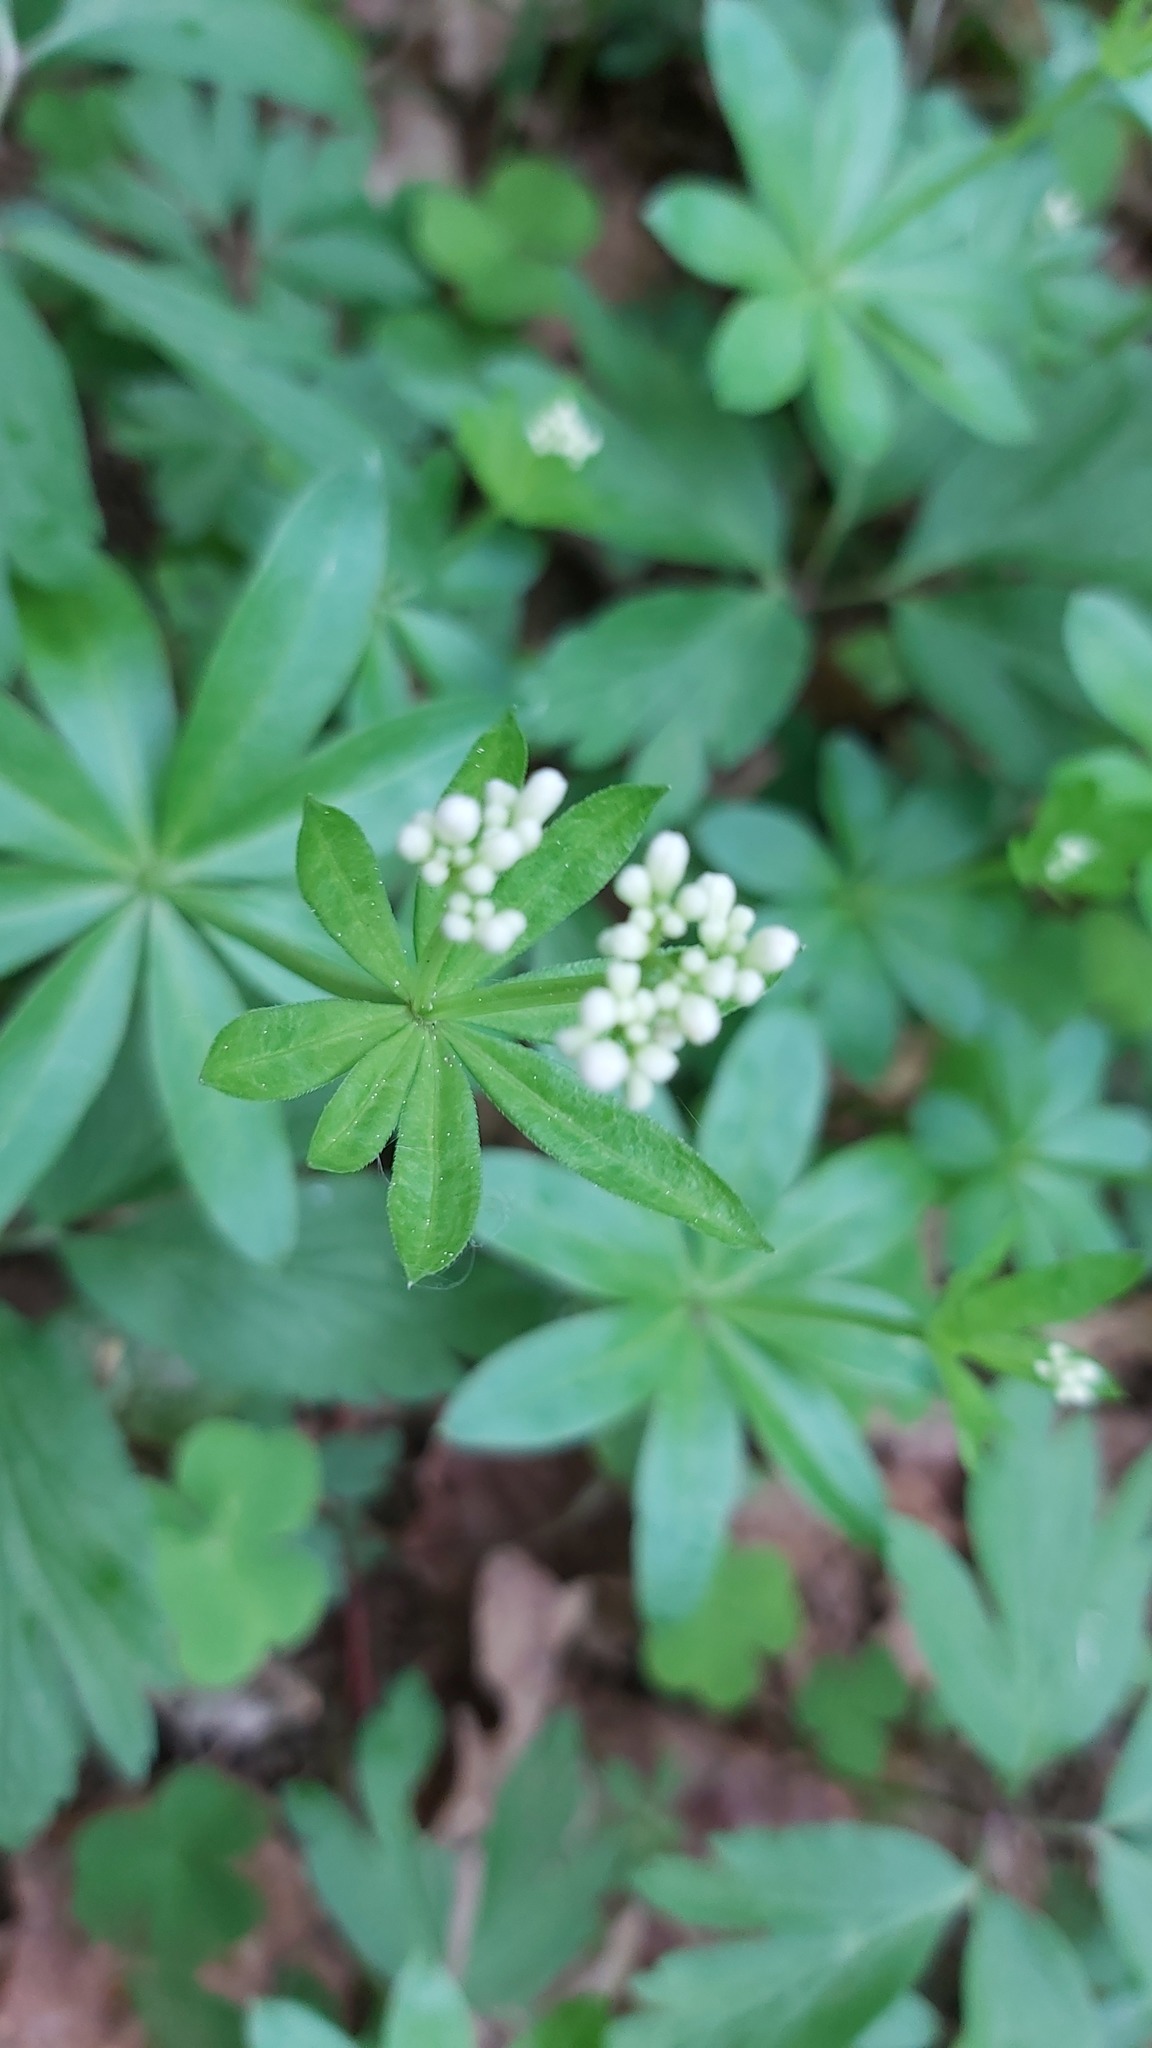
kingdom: Plantae
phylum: Tracheophyta
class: Magnoliopsida
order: Gentianales
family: Rubiaceae
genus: Galium
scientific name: Galium odoratum
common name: Sweet woodruff
